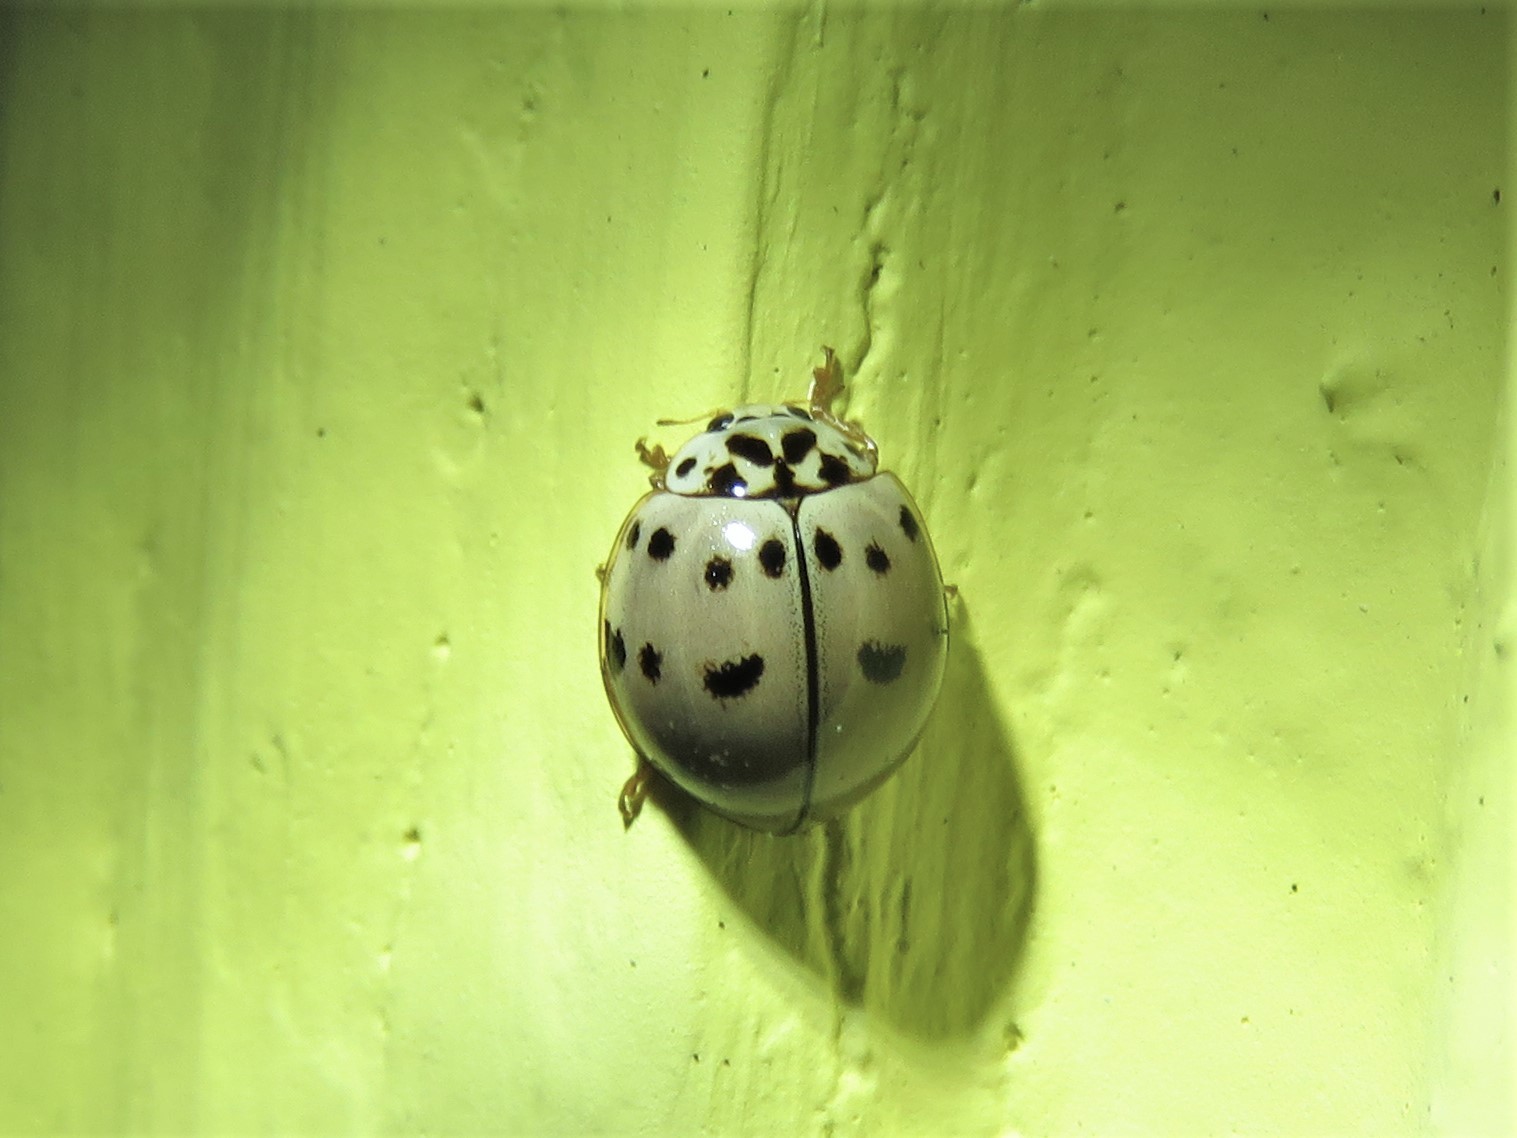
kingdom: Animalia
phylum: Arthropoda
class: Insecta
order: Coleoptera
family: Coccinellidae
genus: Olla
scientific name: Olla v-nigrum
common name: Ashy gray lady beetle
